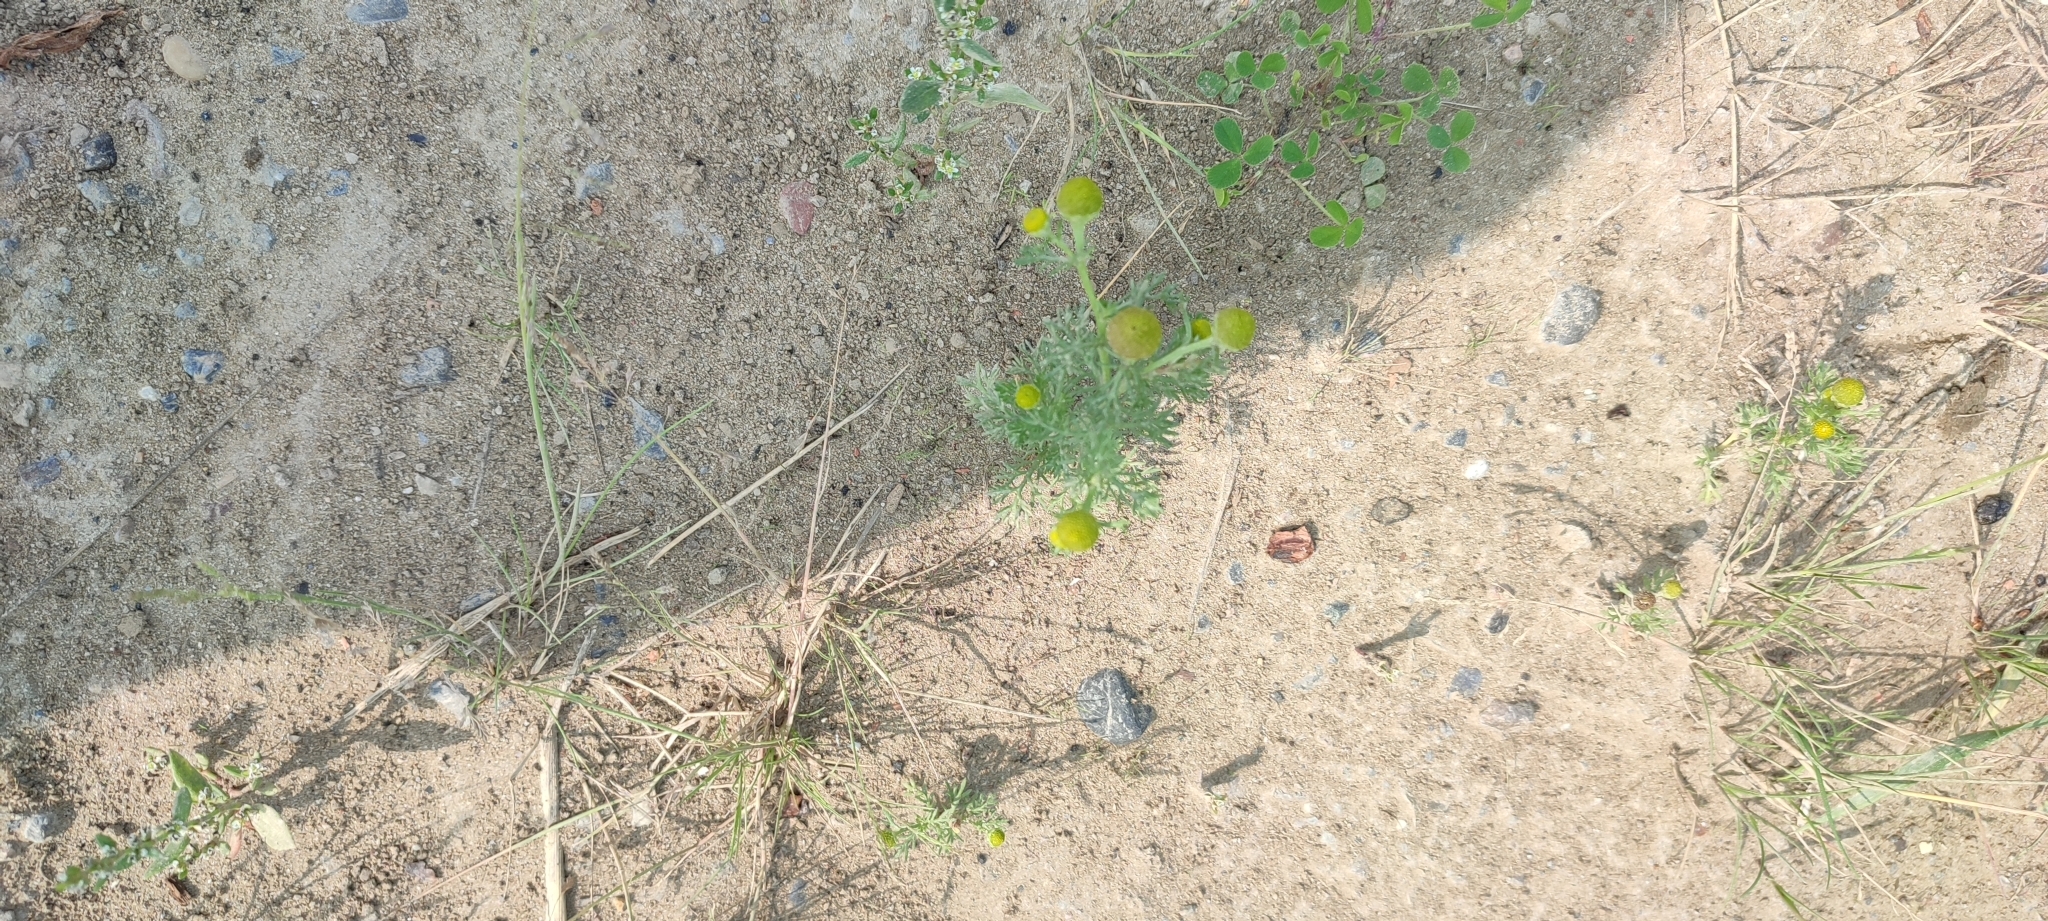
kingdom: Plantae
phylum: Tracheophyta
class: Magnoliopsida
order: Asterales
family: Asteraceae
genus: Matricaria
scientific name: Matricaria discoidea
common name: Disc mayweed
